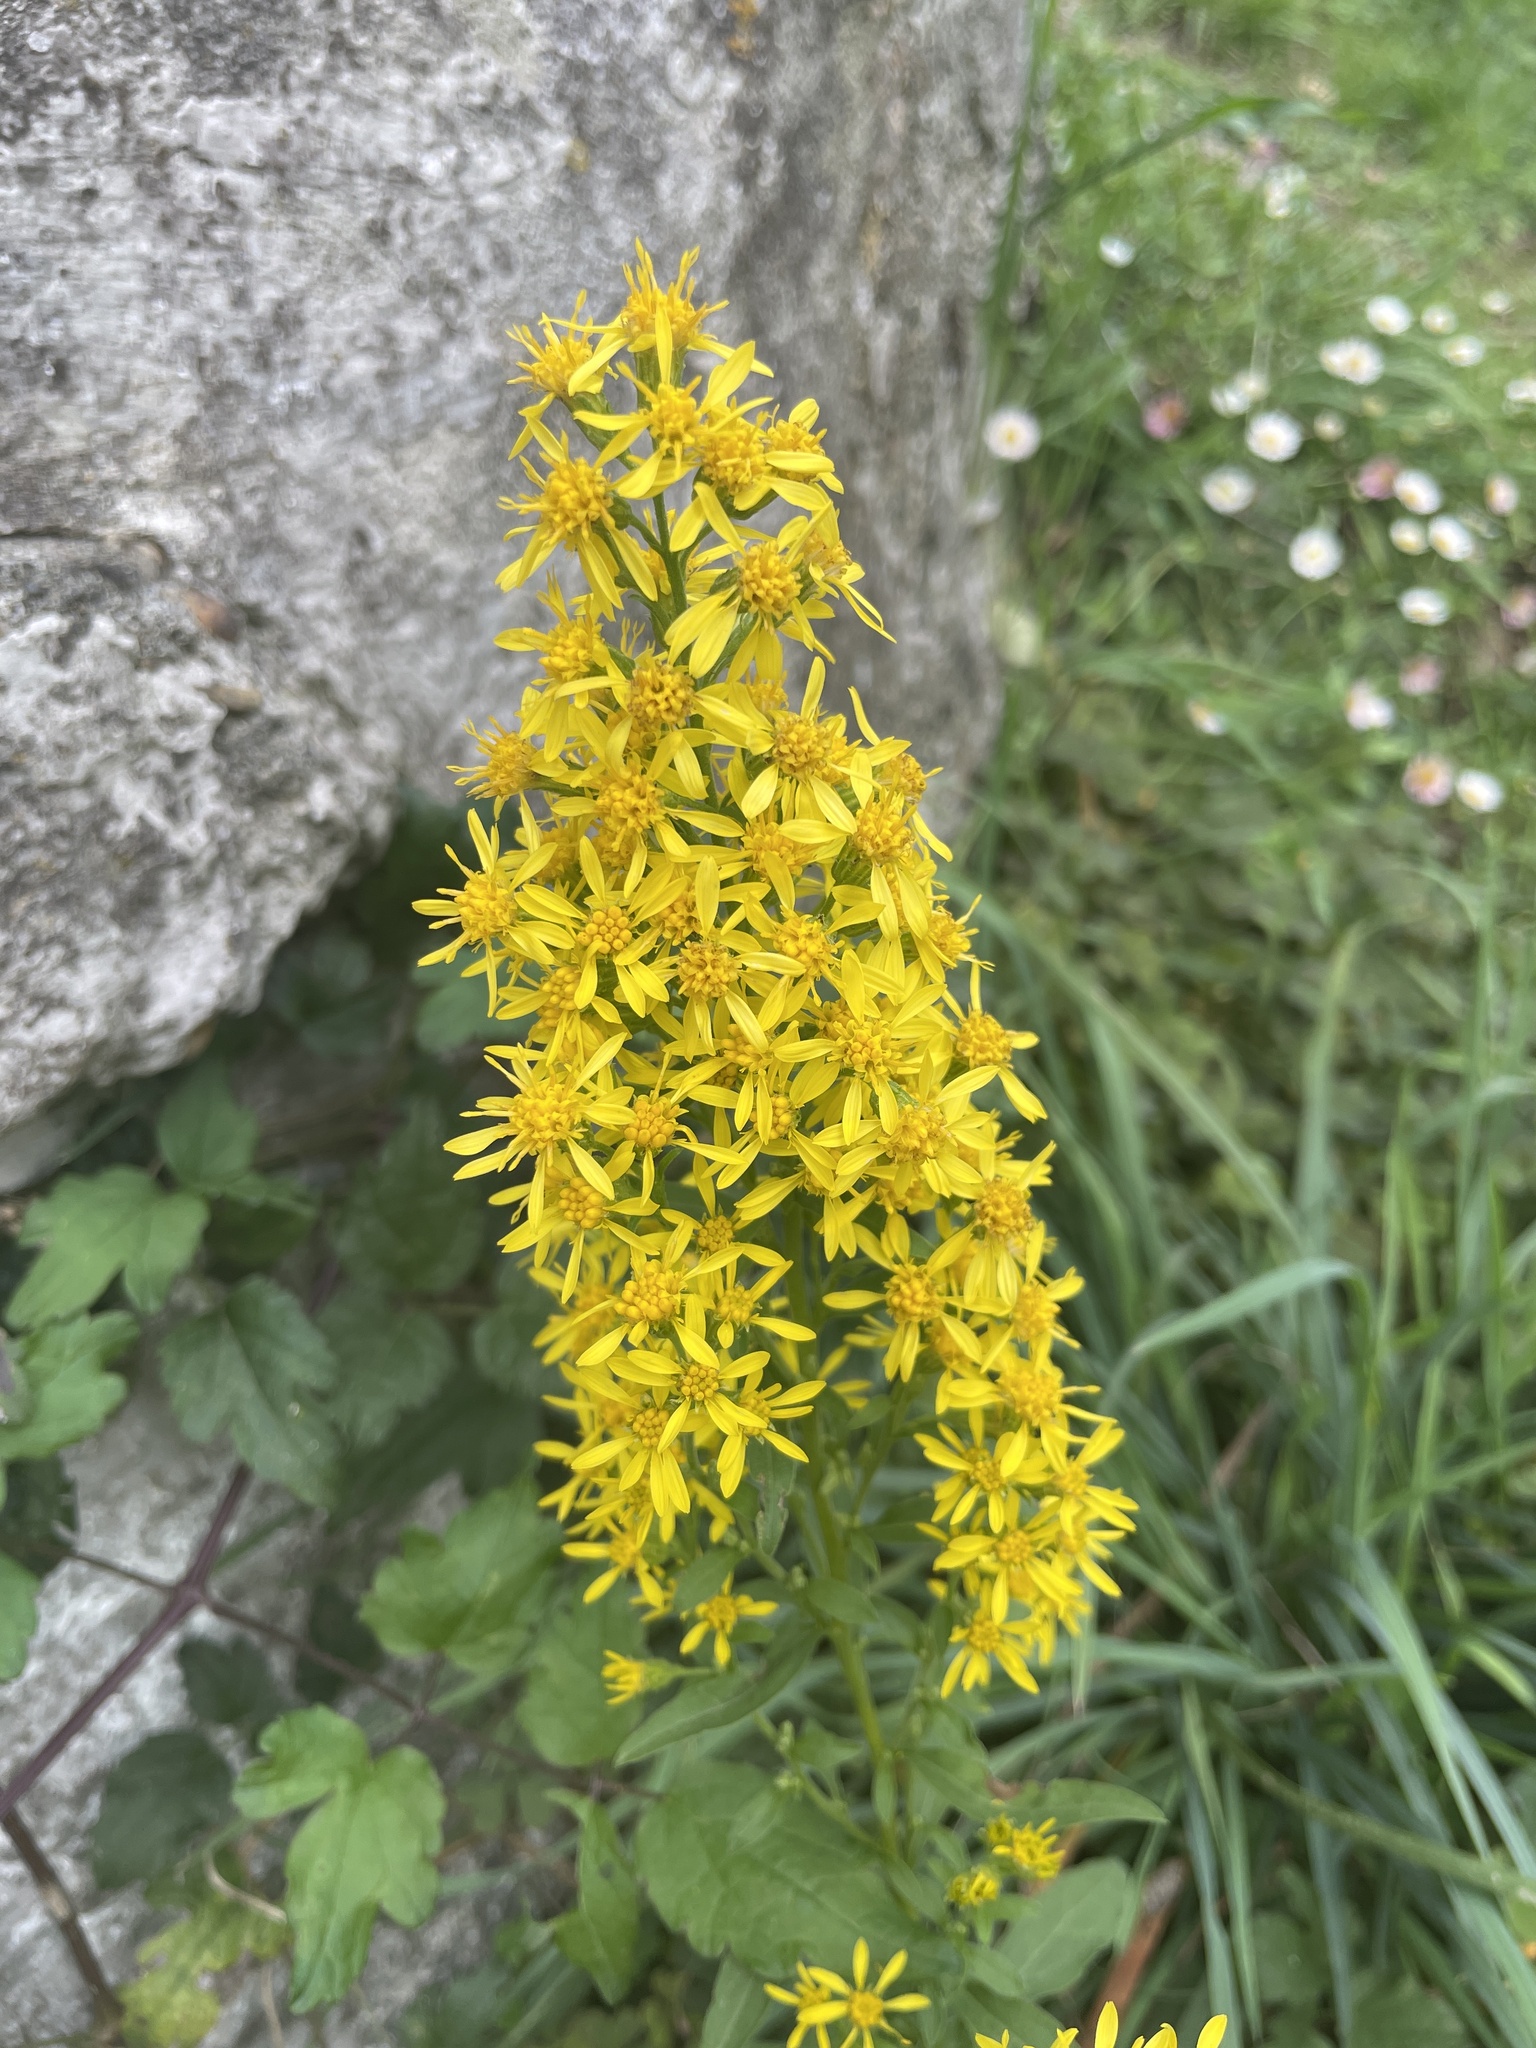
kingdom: Plantae
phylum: Tracheophyta
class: Magnoliopsida
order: Asterales
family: Asteraceae
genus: Solidago
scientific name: Solidago virgaurea
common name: Goldenrod
